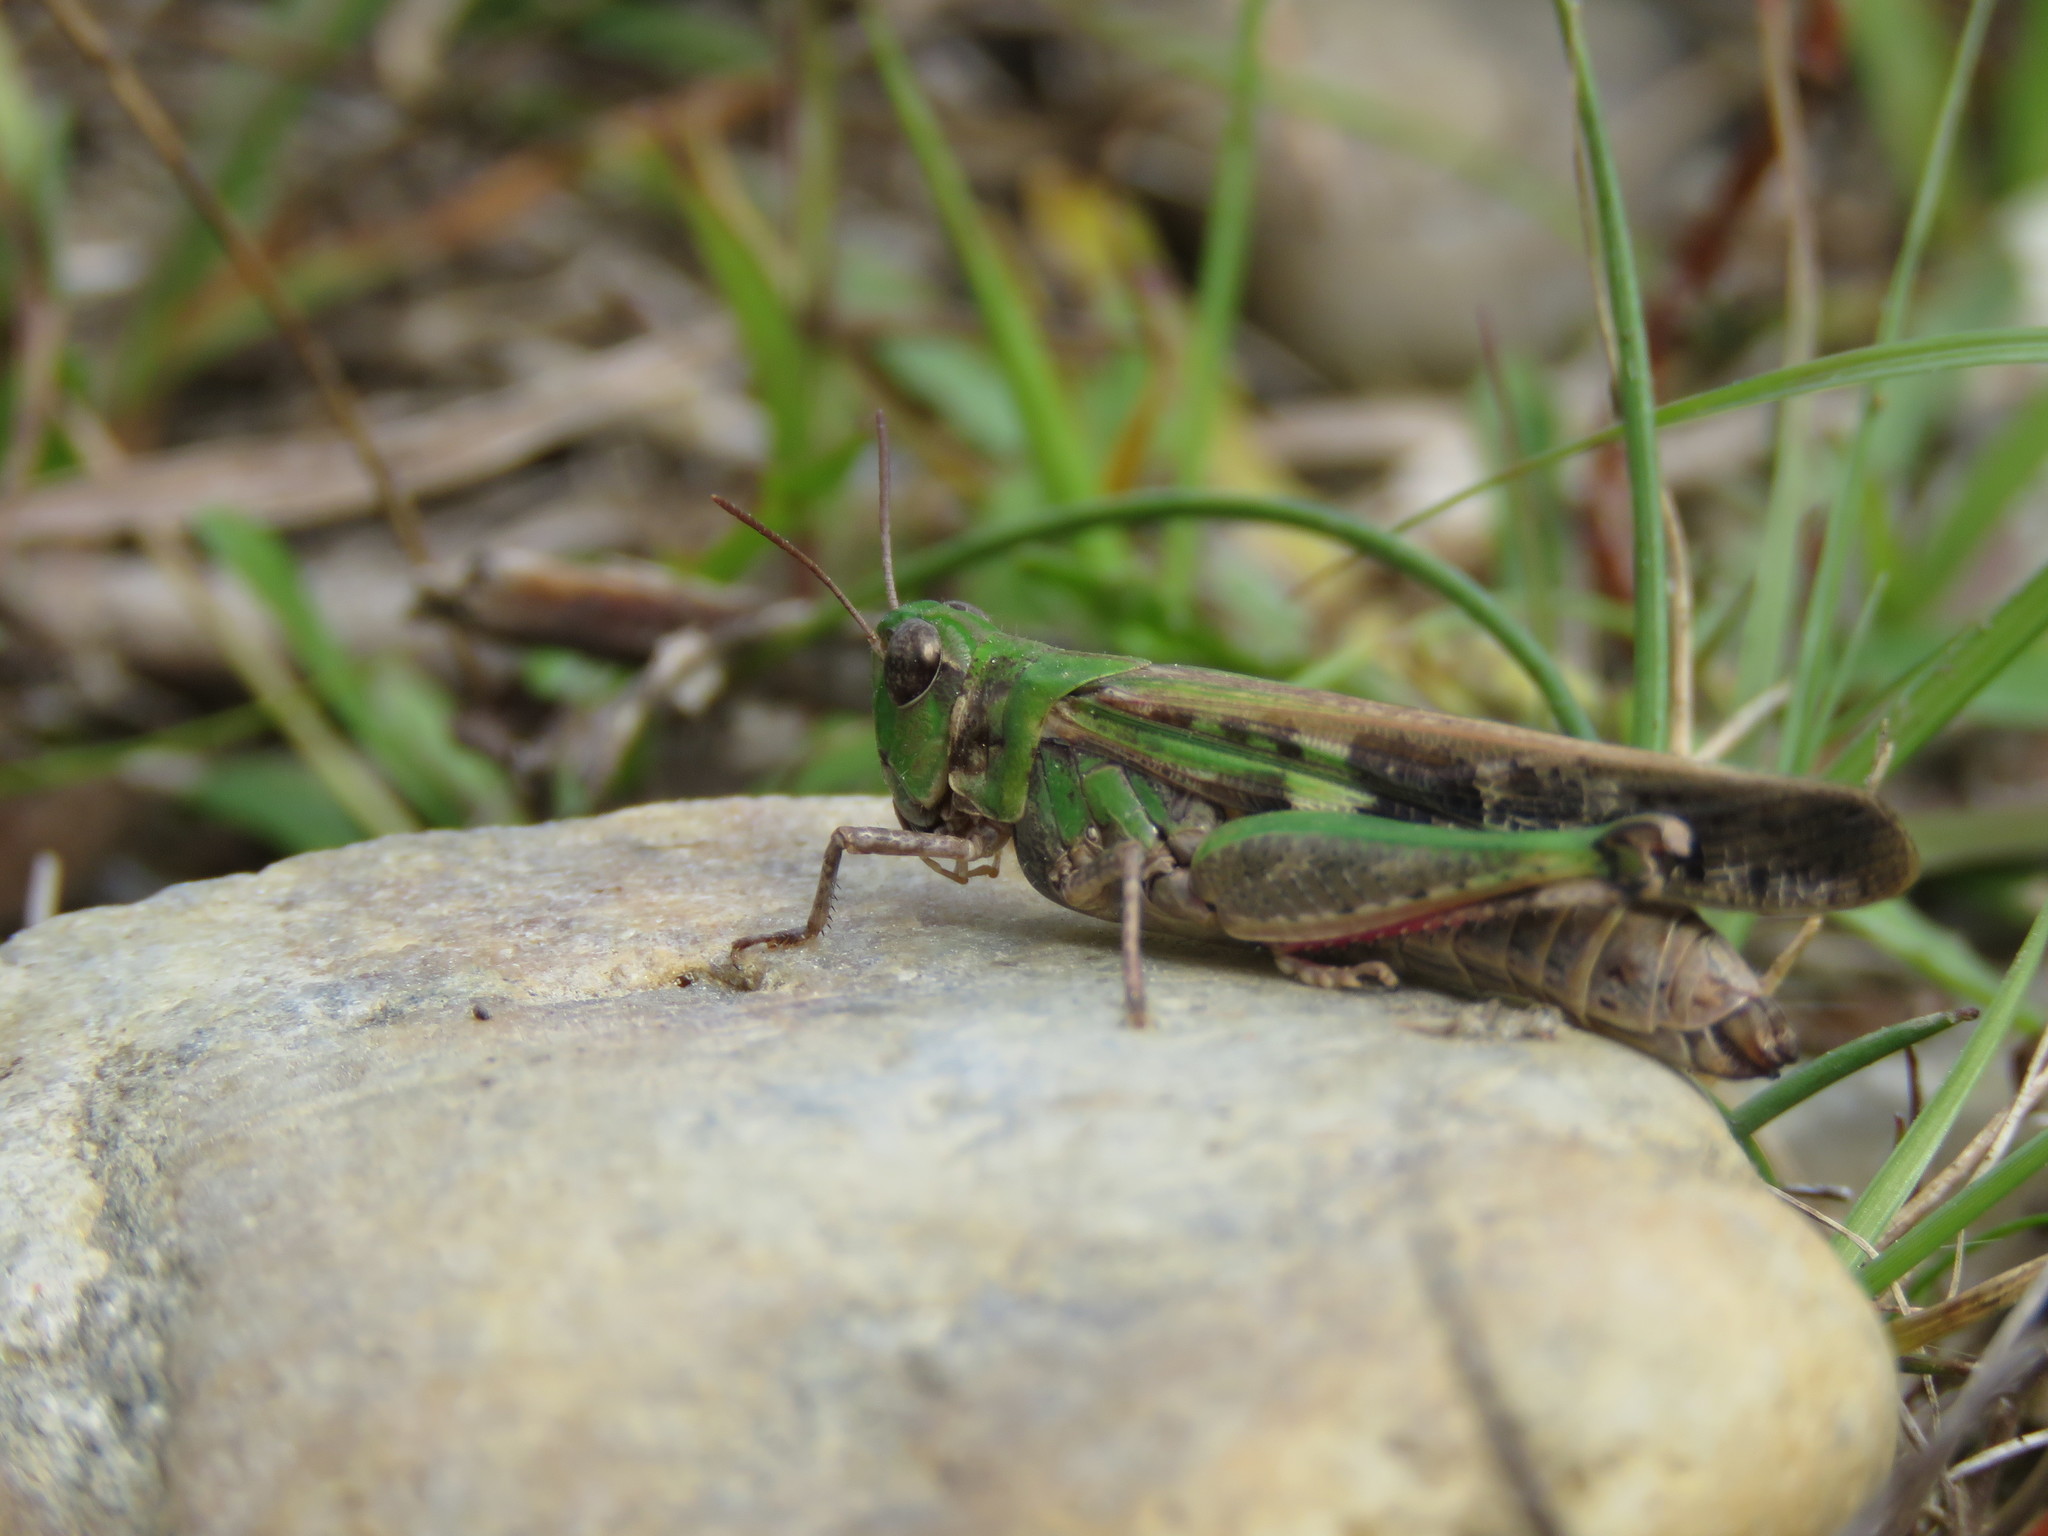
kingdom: Animalia
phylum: Arthropoda
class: Insecta
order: Orthoptera
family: Acrididae
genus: Aiolopus
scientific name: Aiolopus thalassinus
